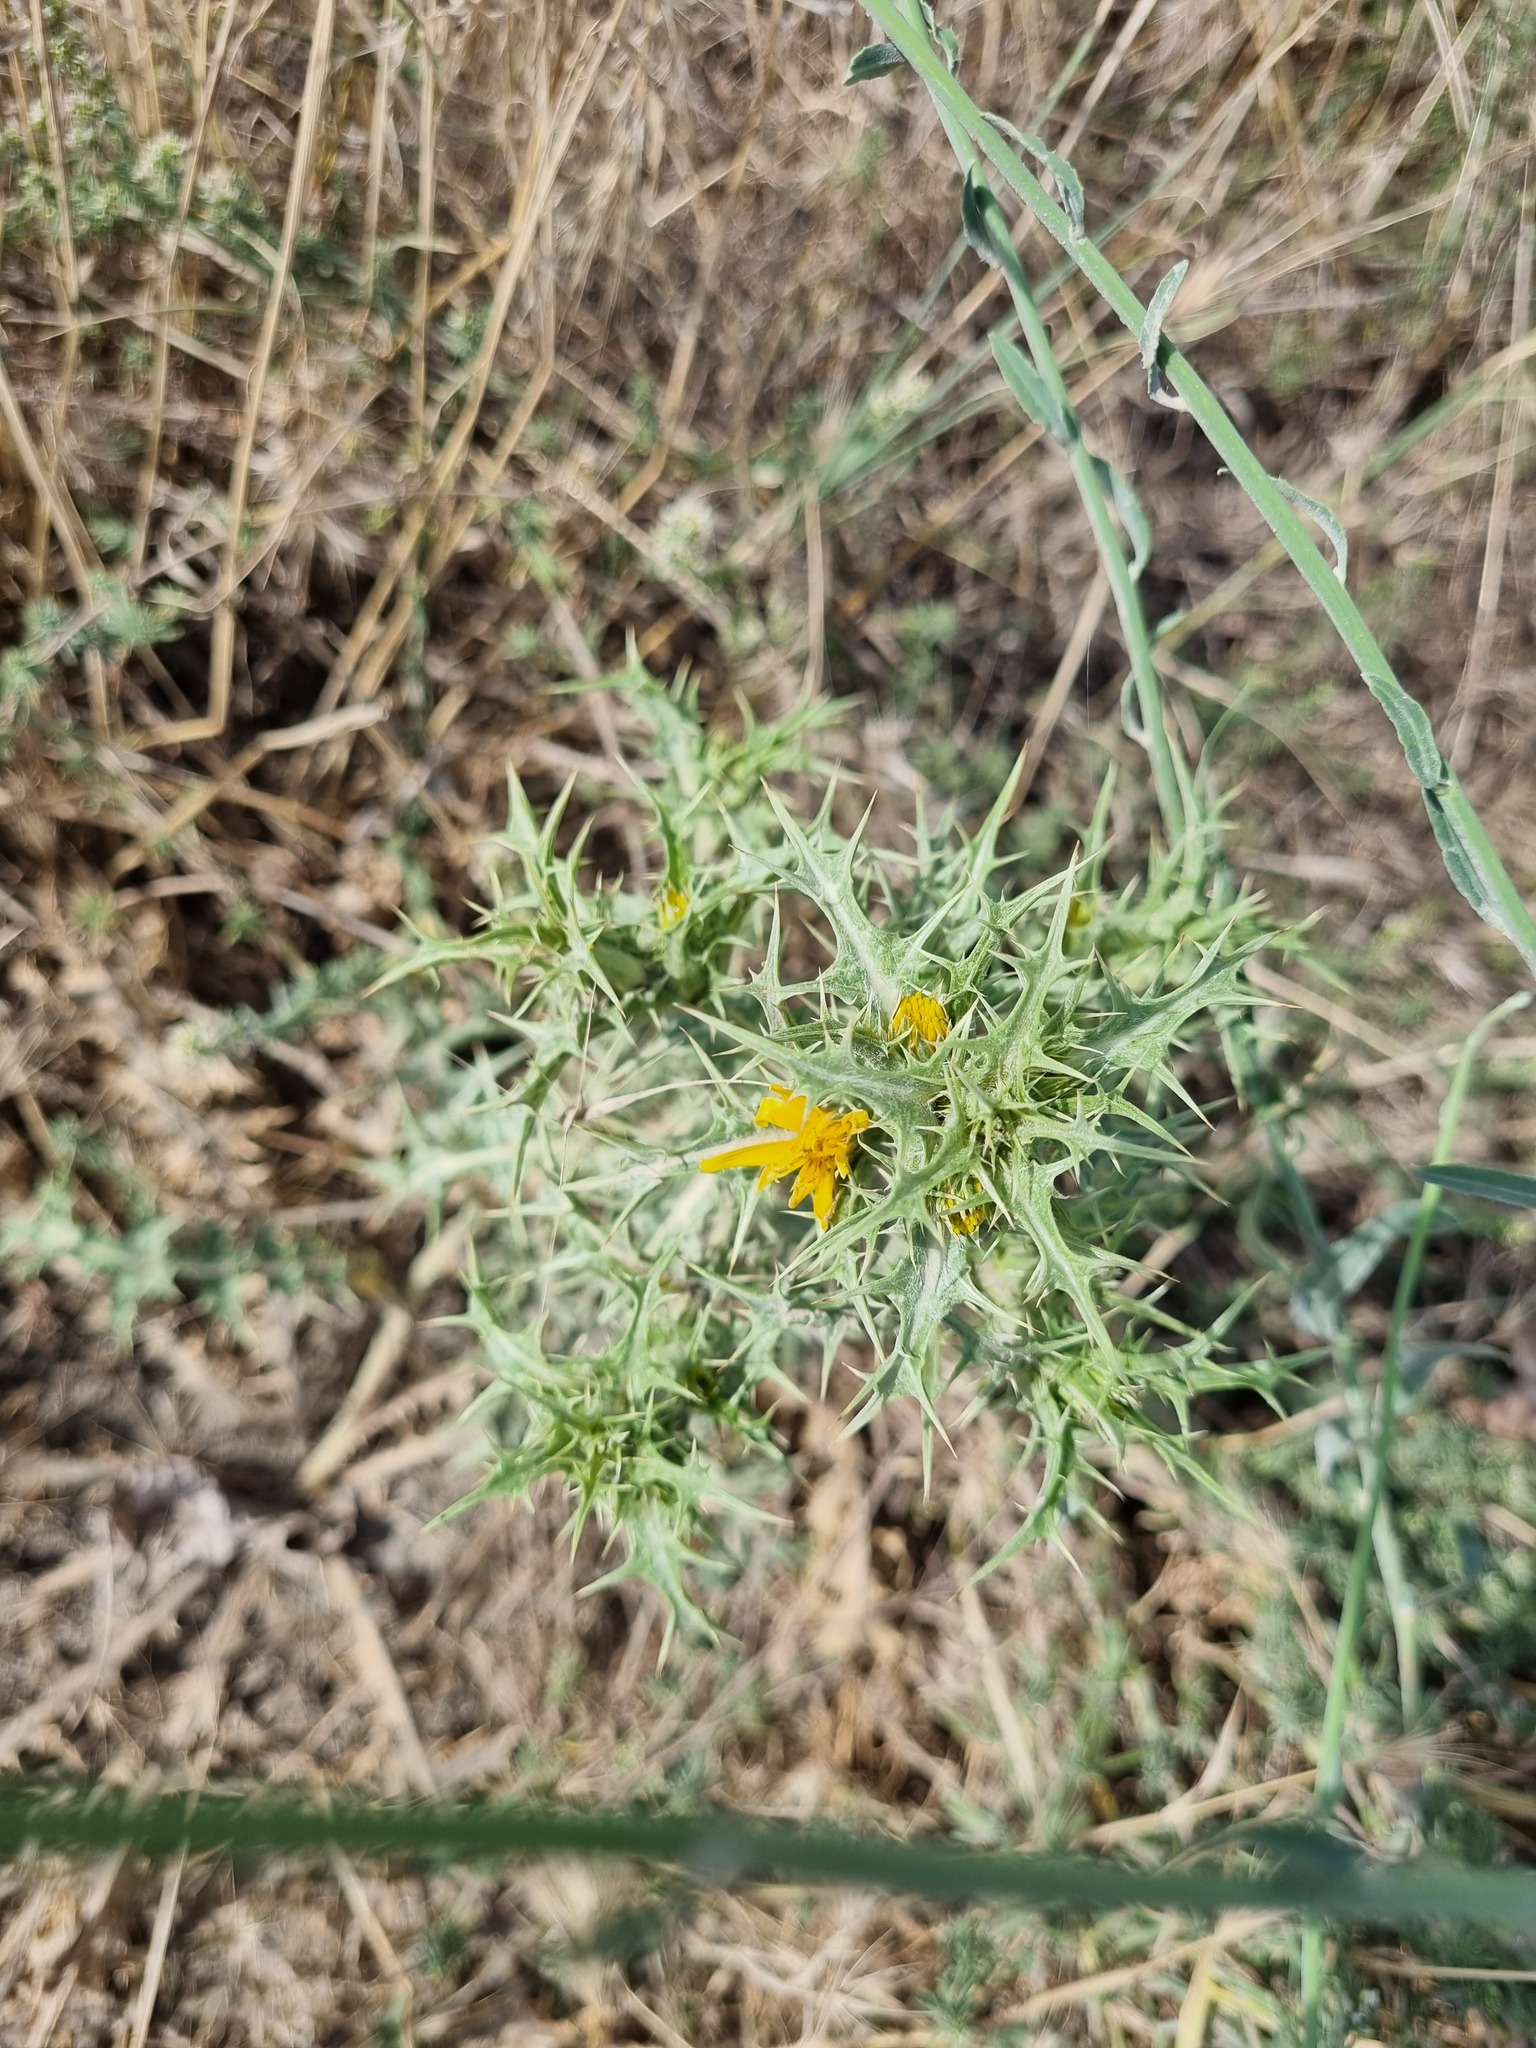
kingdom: Plantae
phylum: Tracheophyta
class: Magnoliopsida
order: Asterales
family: Asteraceae
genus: Scolymus
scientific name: Scolymus hispanicus
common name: Golden thistle
